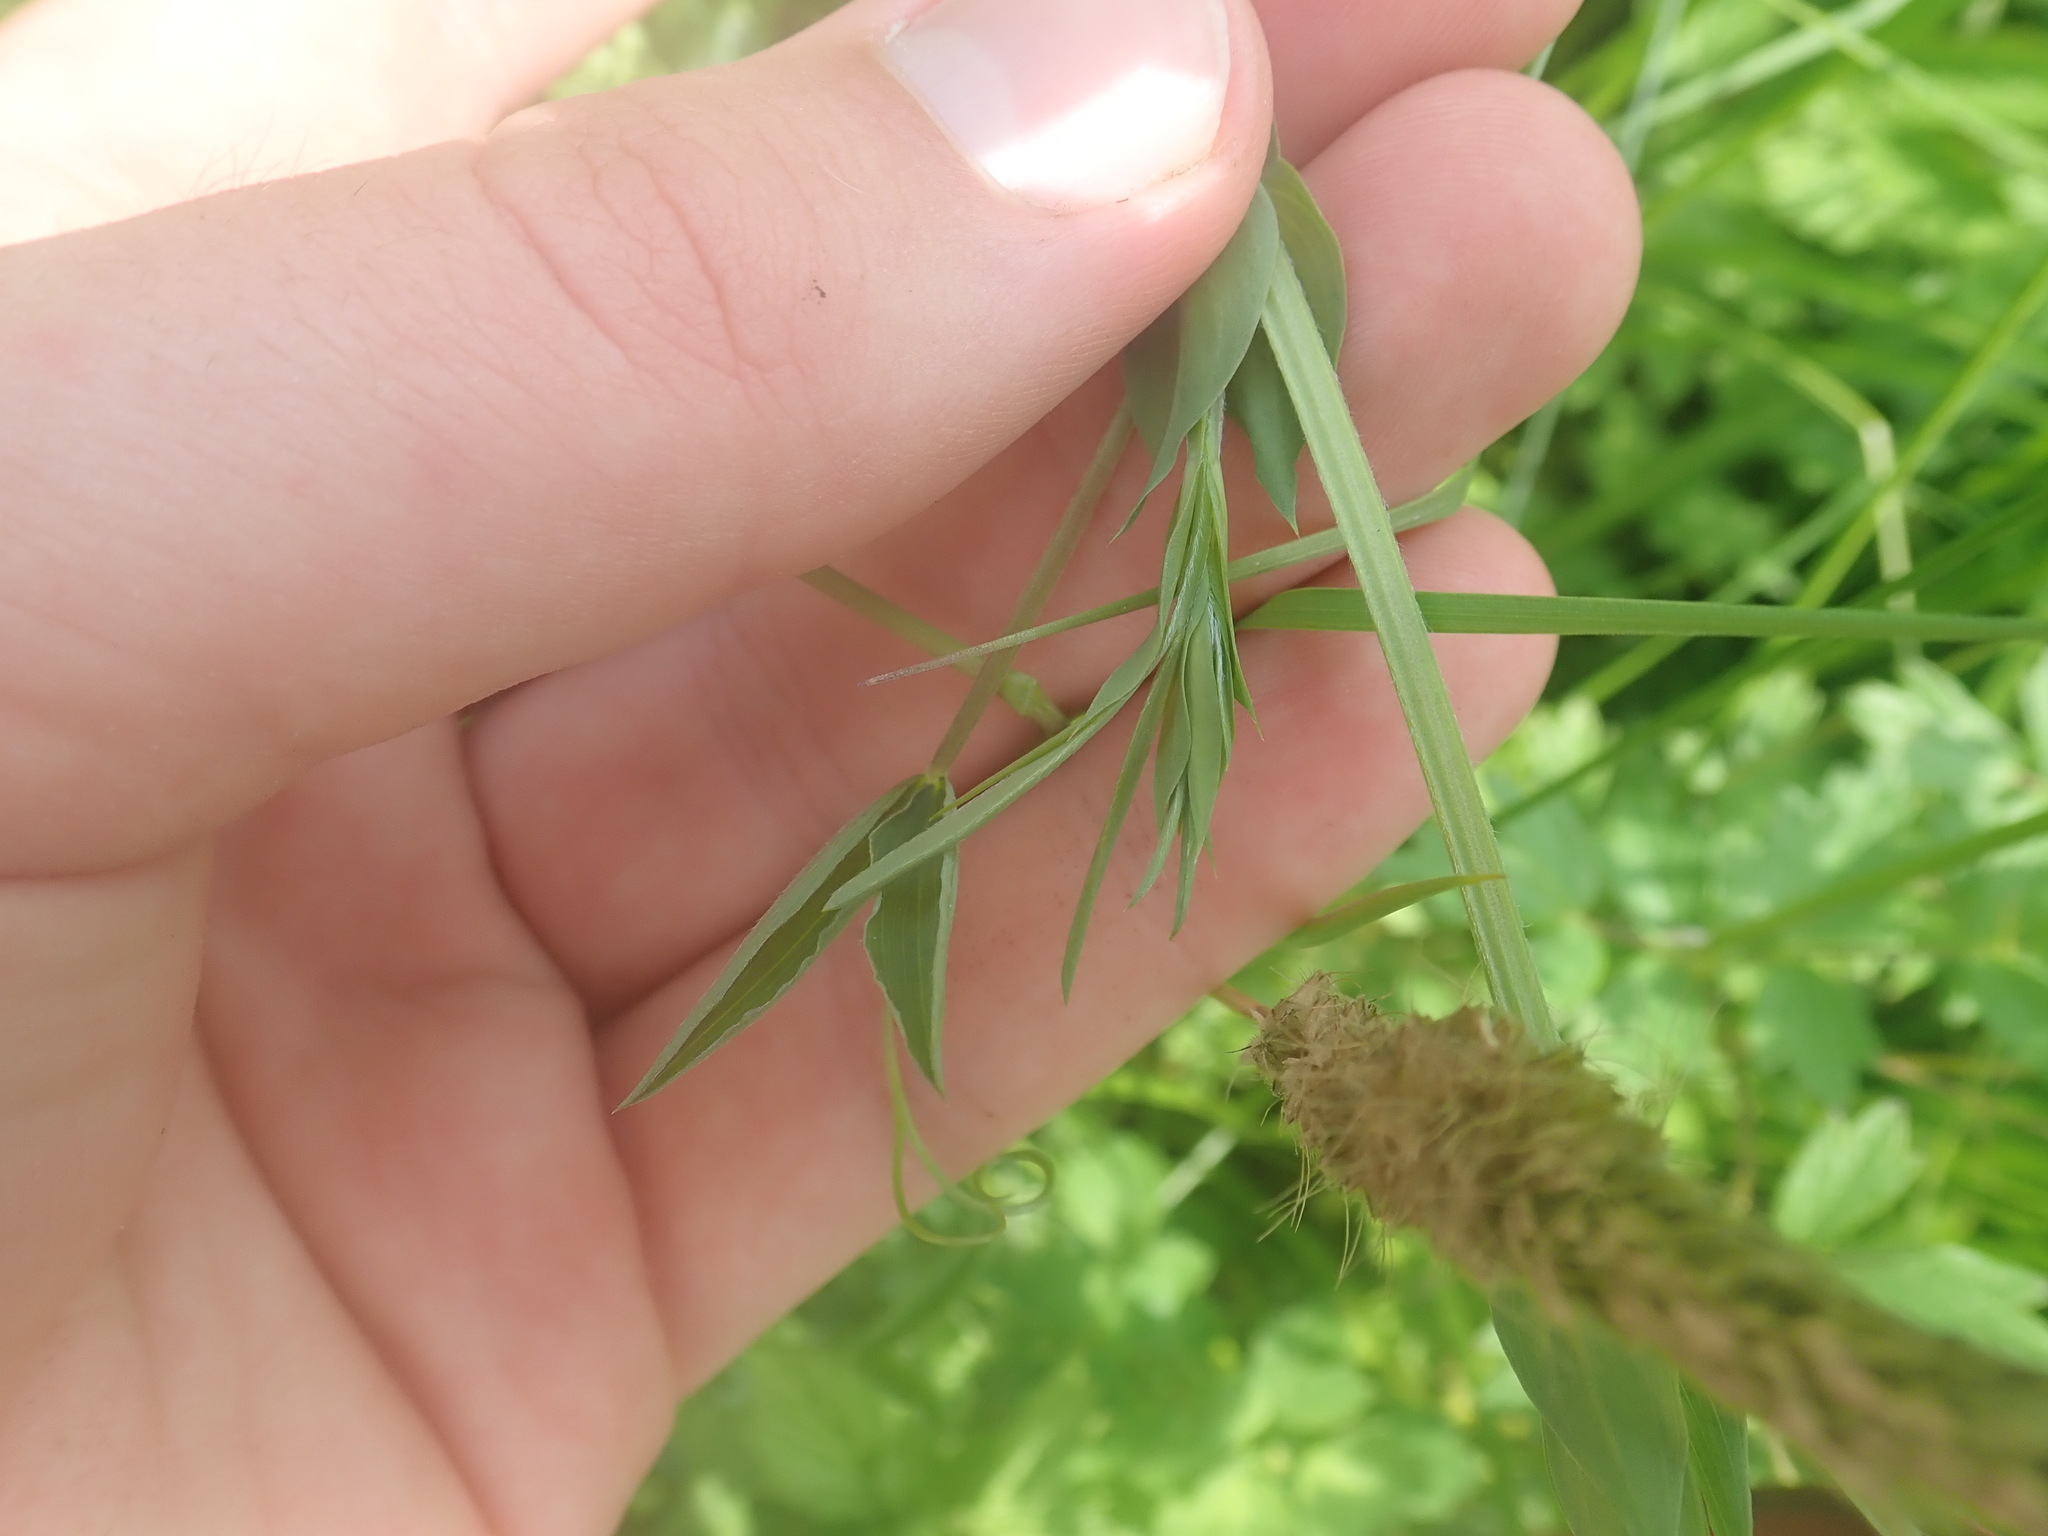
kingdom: Plantae
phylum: Tracheophyta
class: Magnoliopsida
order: Fabales
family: Fabaceae
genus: Lathyrus
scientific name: Lathyrus pratensis
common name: Meadow vetchling
